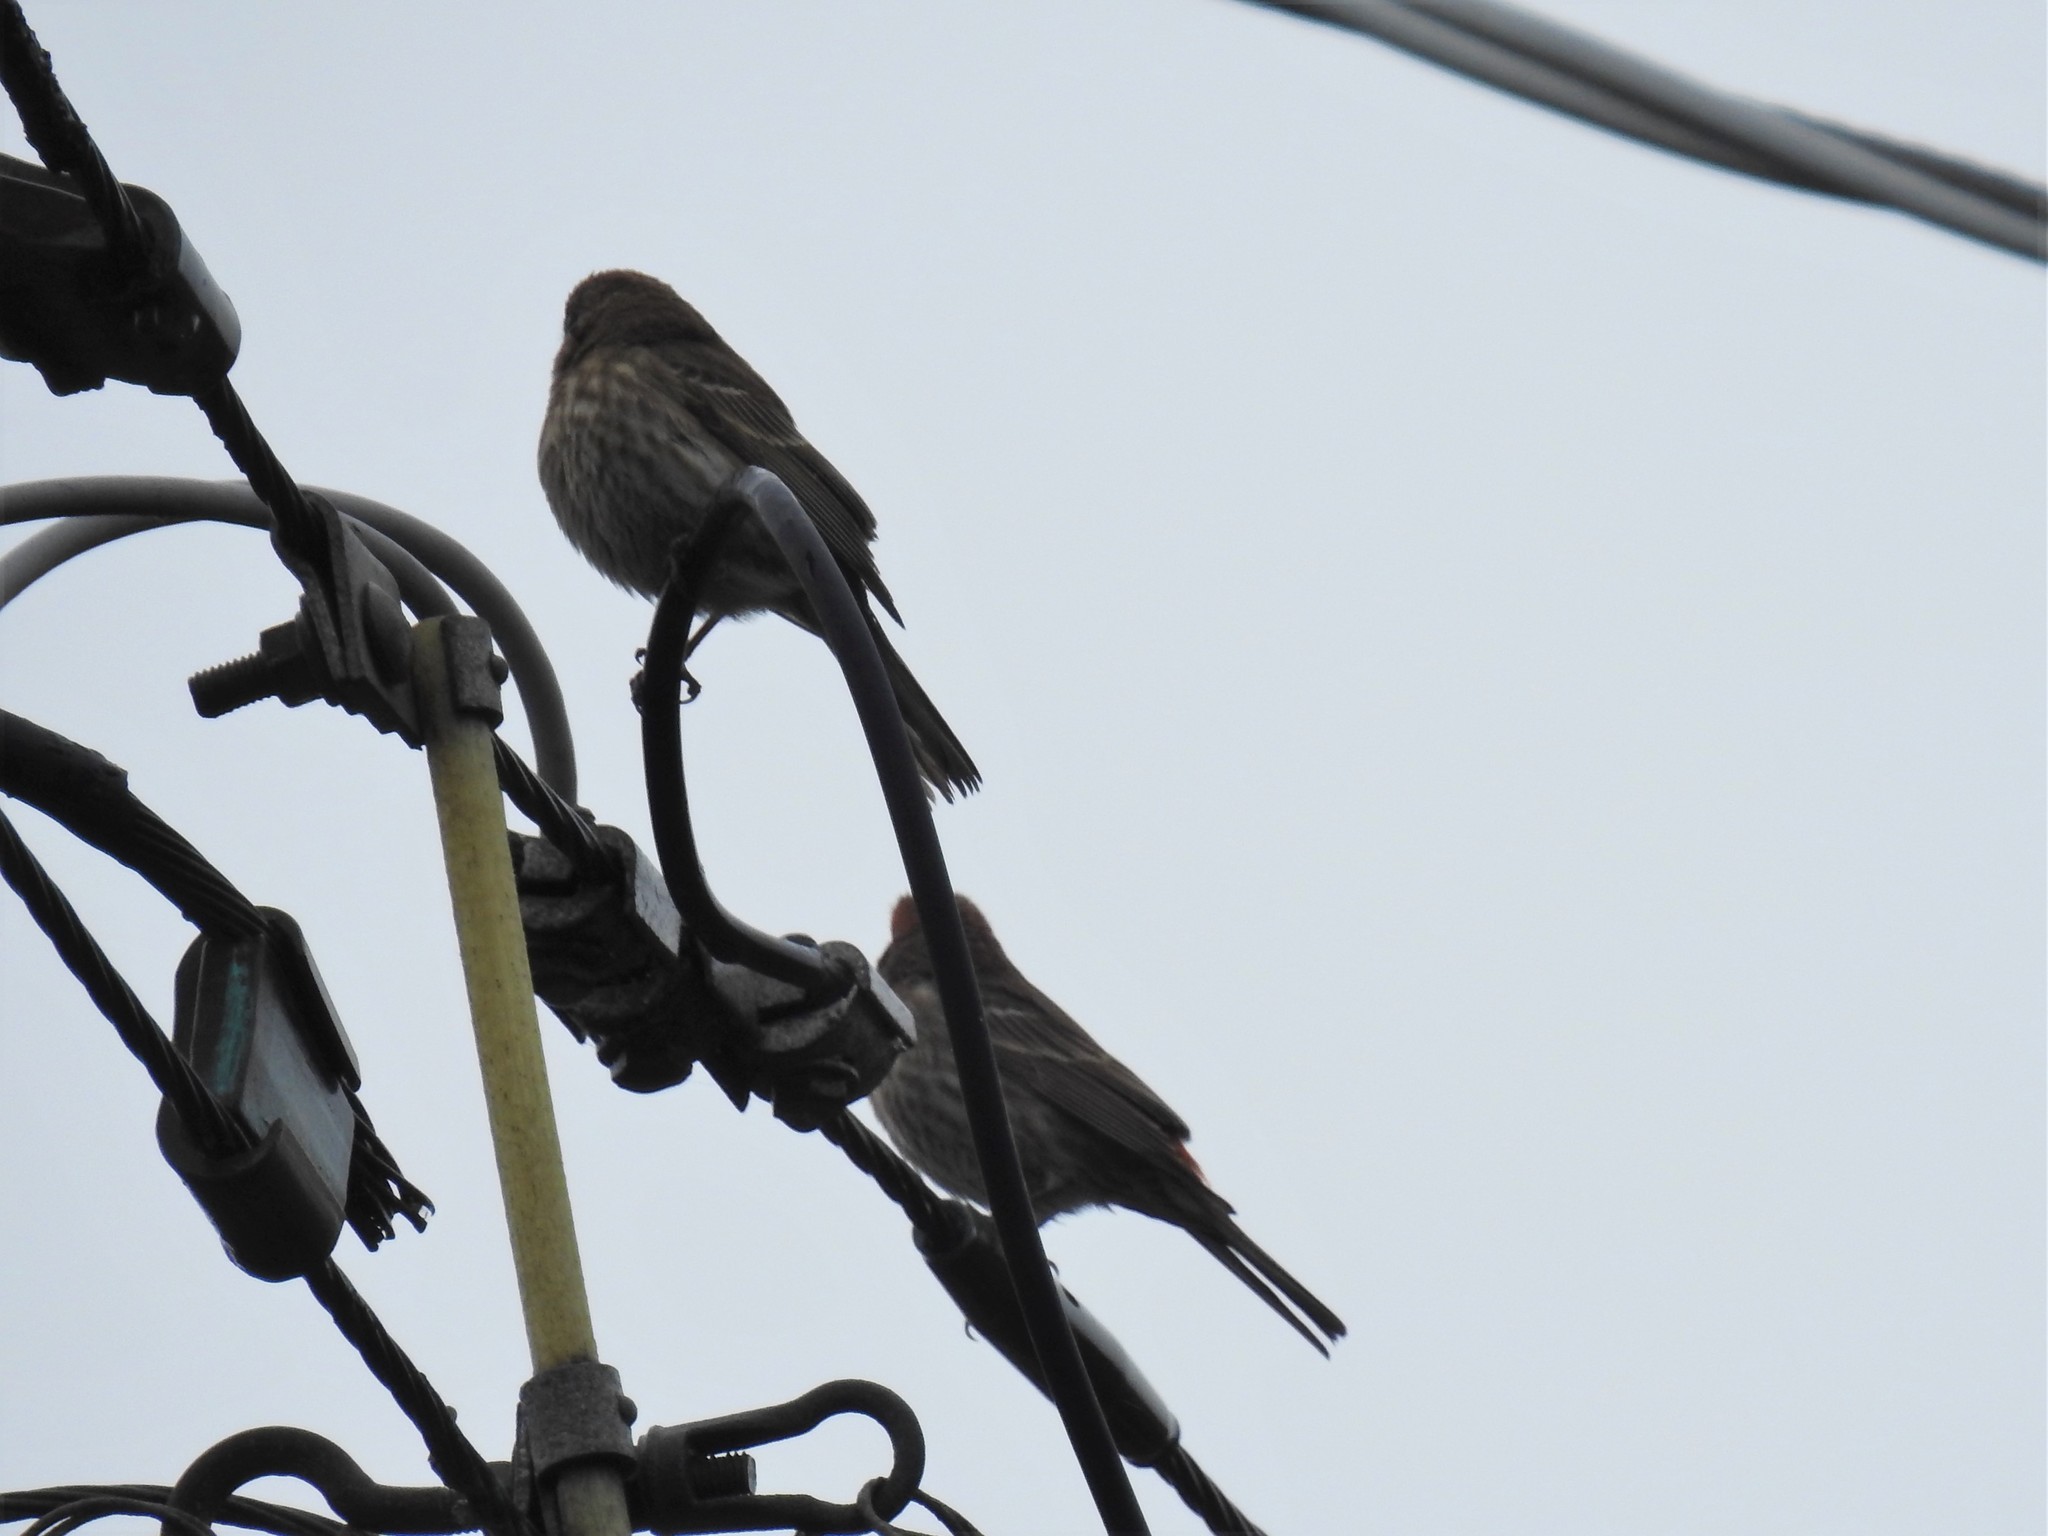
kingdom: Animalia
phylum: Chordata
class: Aves
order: Passeriformes
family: Fringillidae
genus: Haemorhous
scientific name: Haemorhous mexicanus
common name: House finch
